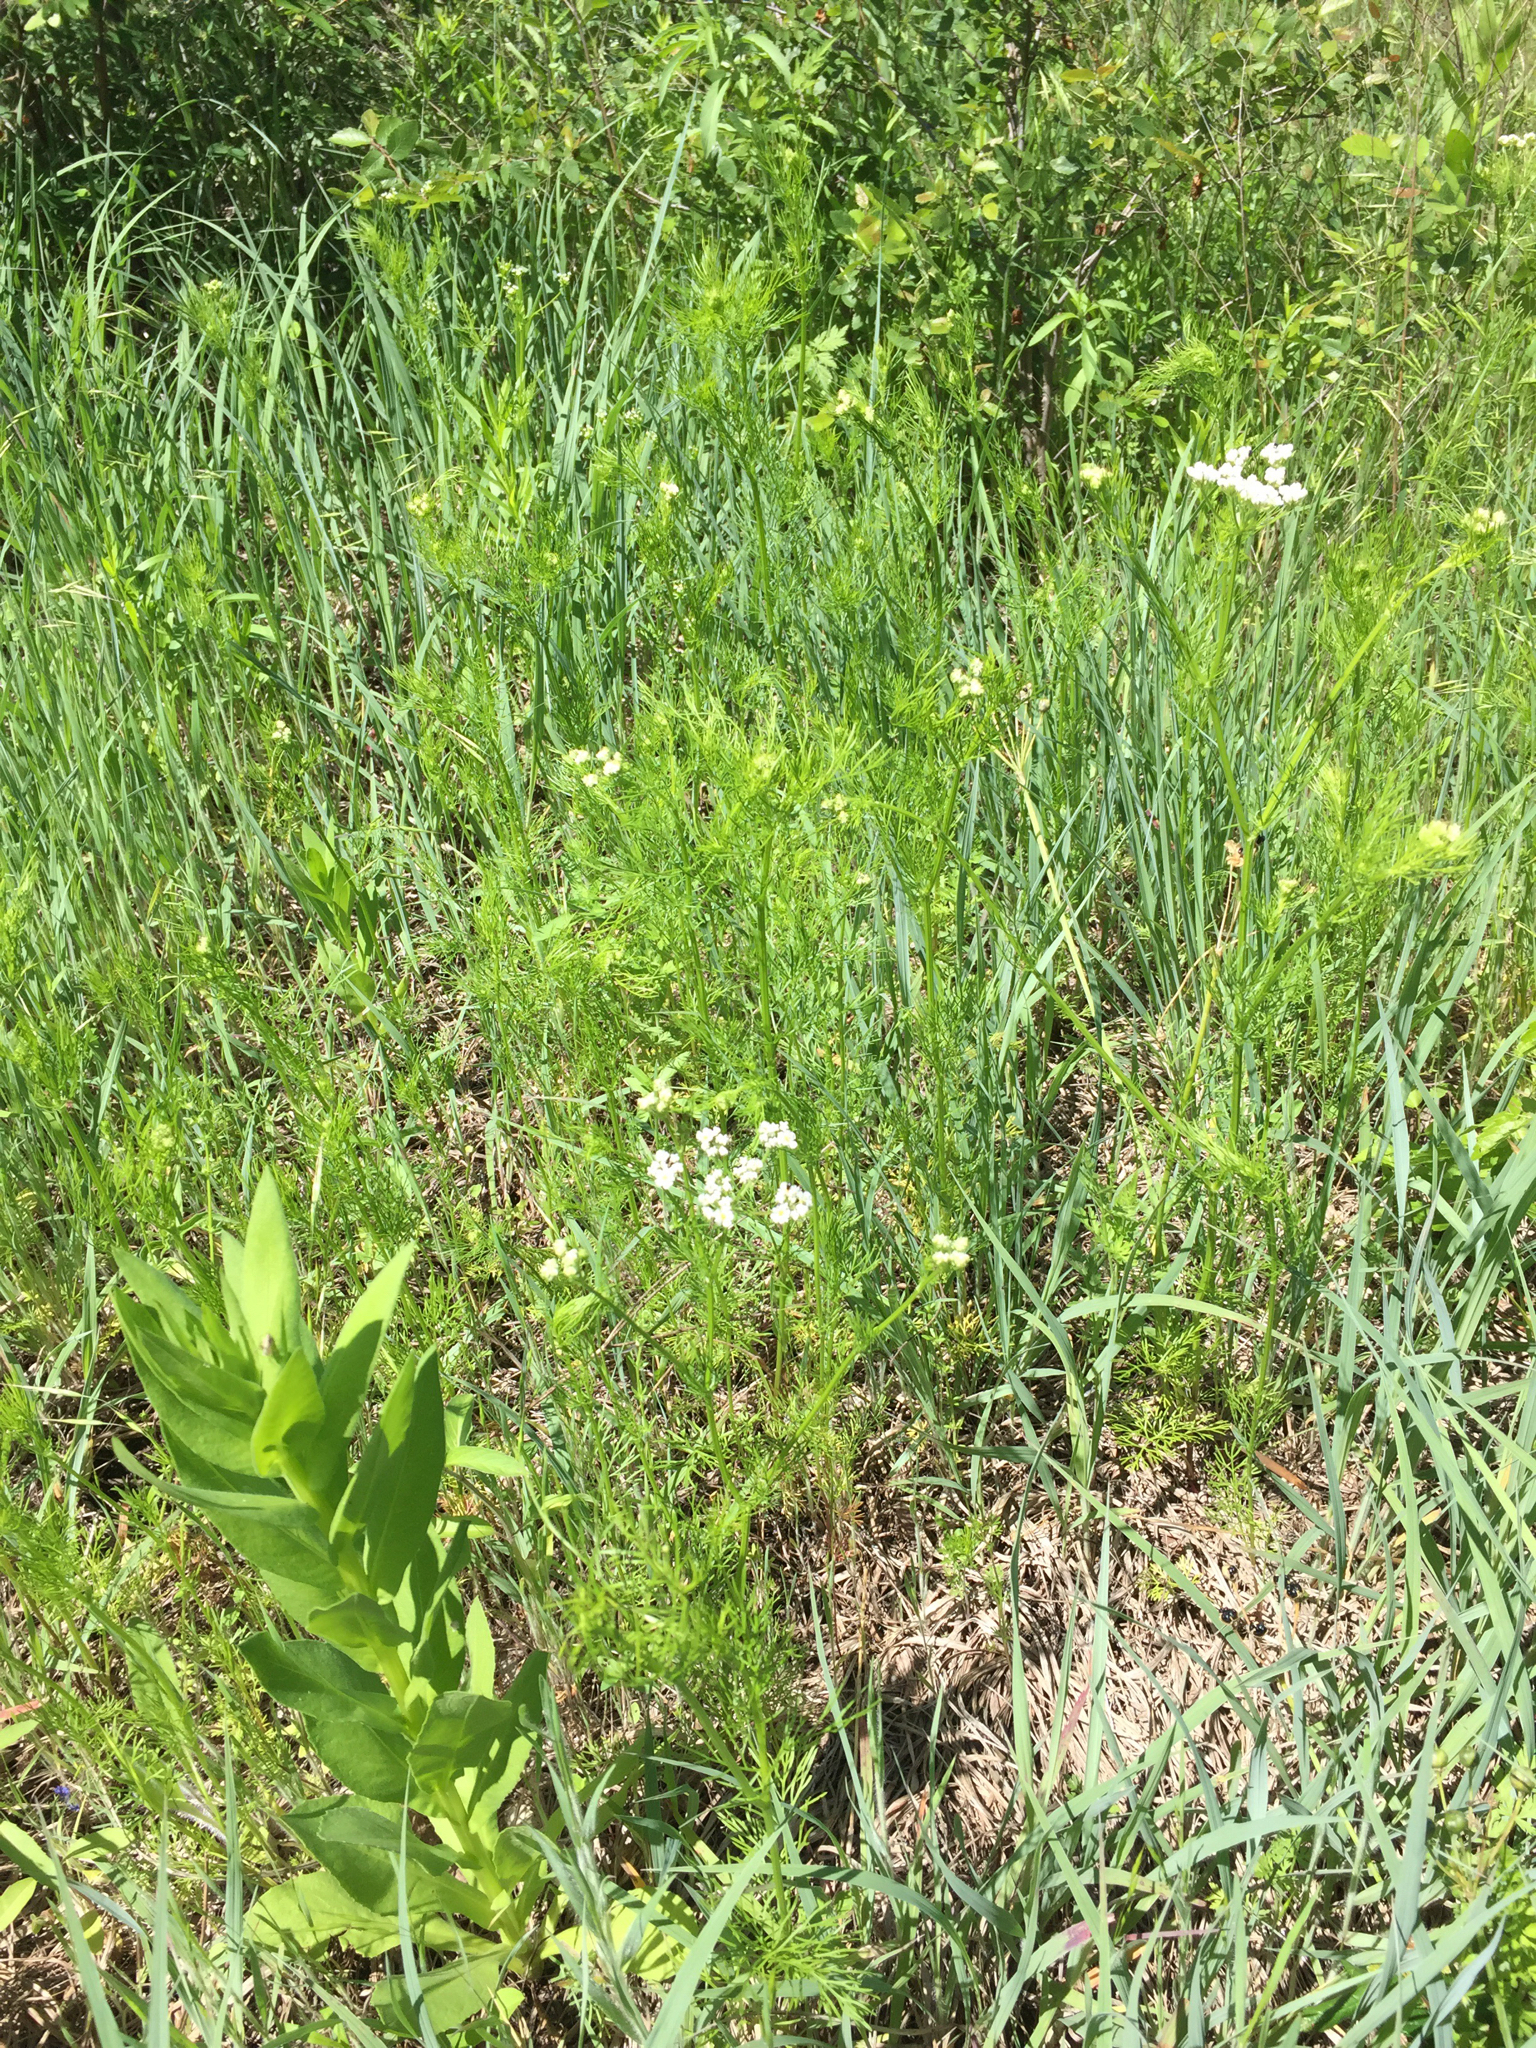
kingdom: Plantae
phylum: Tracheophyta
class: Magnoliopsida
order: Apiales
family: Apiaceae
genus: Atrema
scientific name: Atrema americanum
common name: Prairie-bishop
